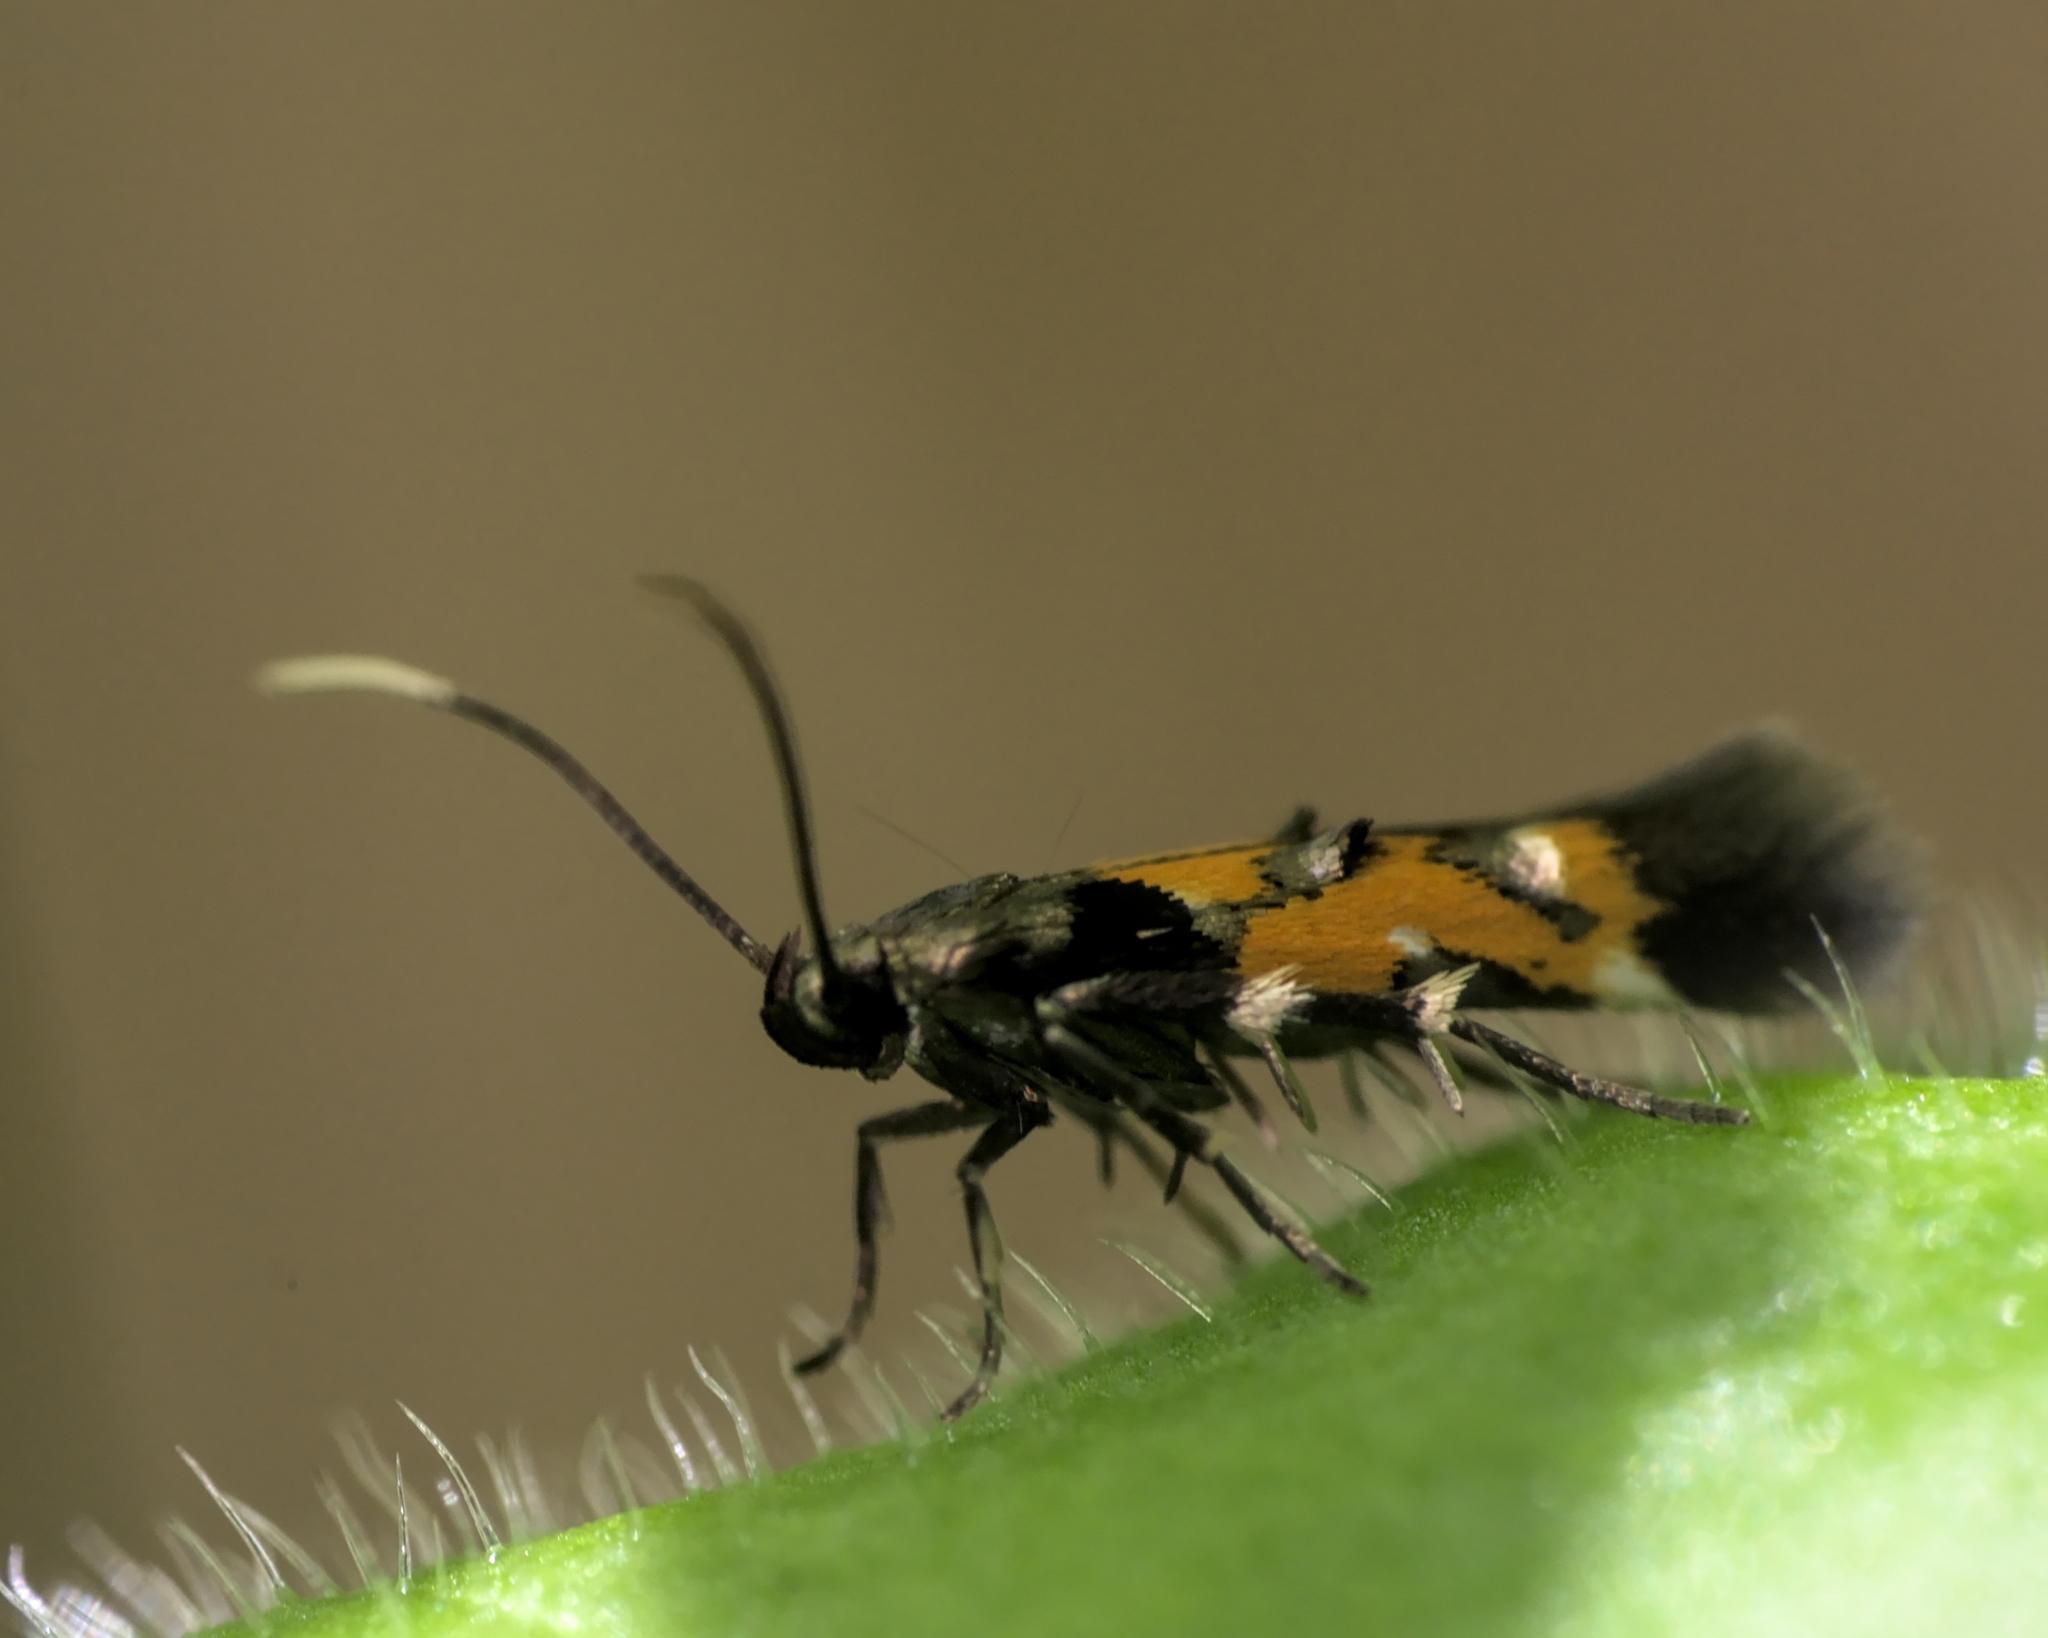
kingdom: Animalia
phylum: Arthropoda
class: Insecta
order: Lepidoptera
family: Momphidae
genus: Mompha
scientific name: Mompha locupletella
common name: Red cosmet
